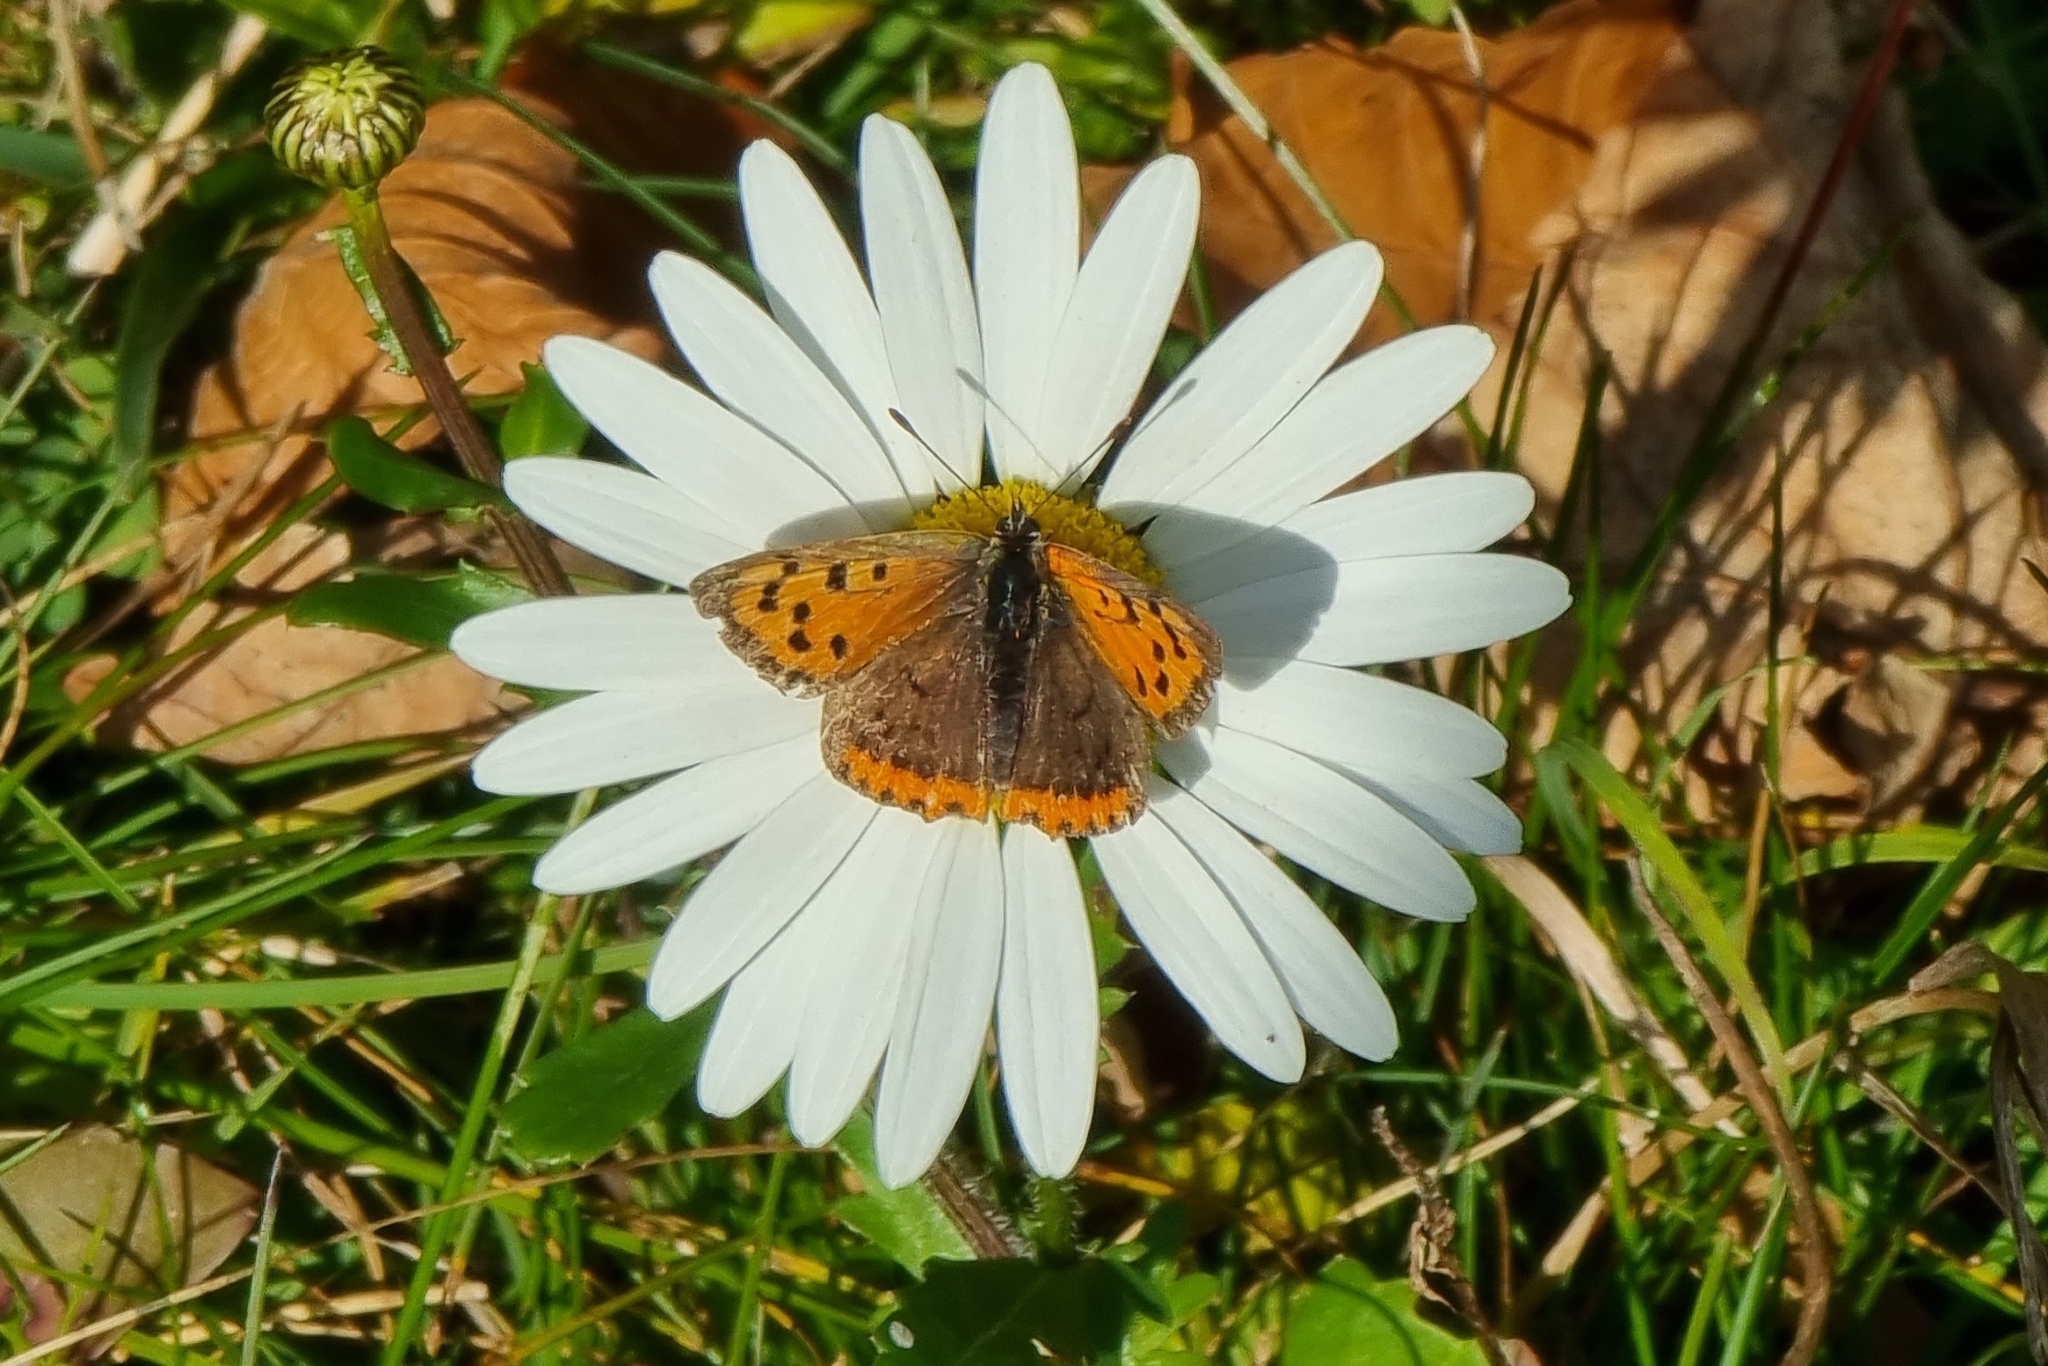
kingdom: Animalia
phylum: Arthropoda
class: Insecta
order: Lepidoptera
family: Lycaenidae
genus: Lycaena
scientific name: Lycaena phlaeas
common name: Small copper
